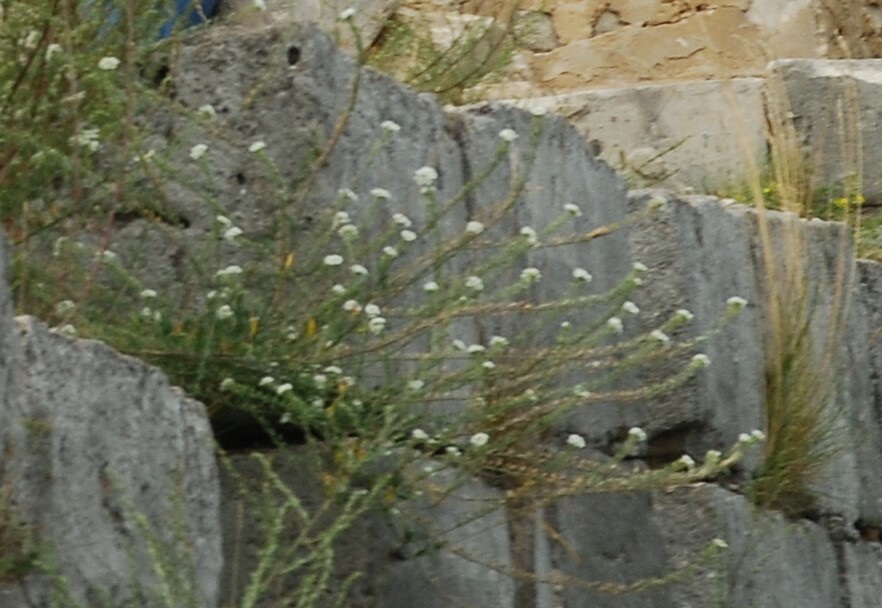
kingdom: Plantae
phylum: Tracheophyta
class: Magnoliopsida
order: Brassicales
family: Brassicaceae
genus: Berteroa
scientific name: Berteroa incana
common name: Hoary alison
